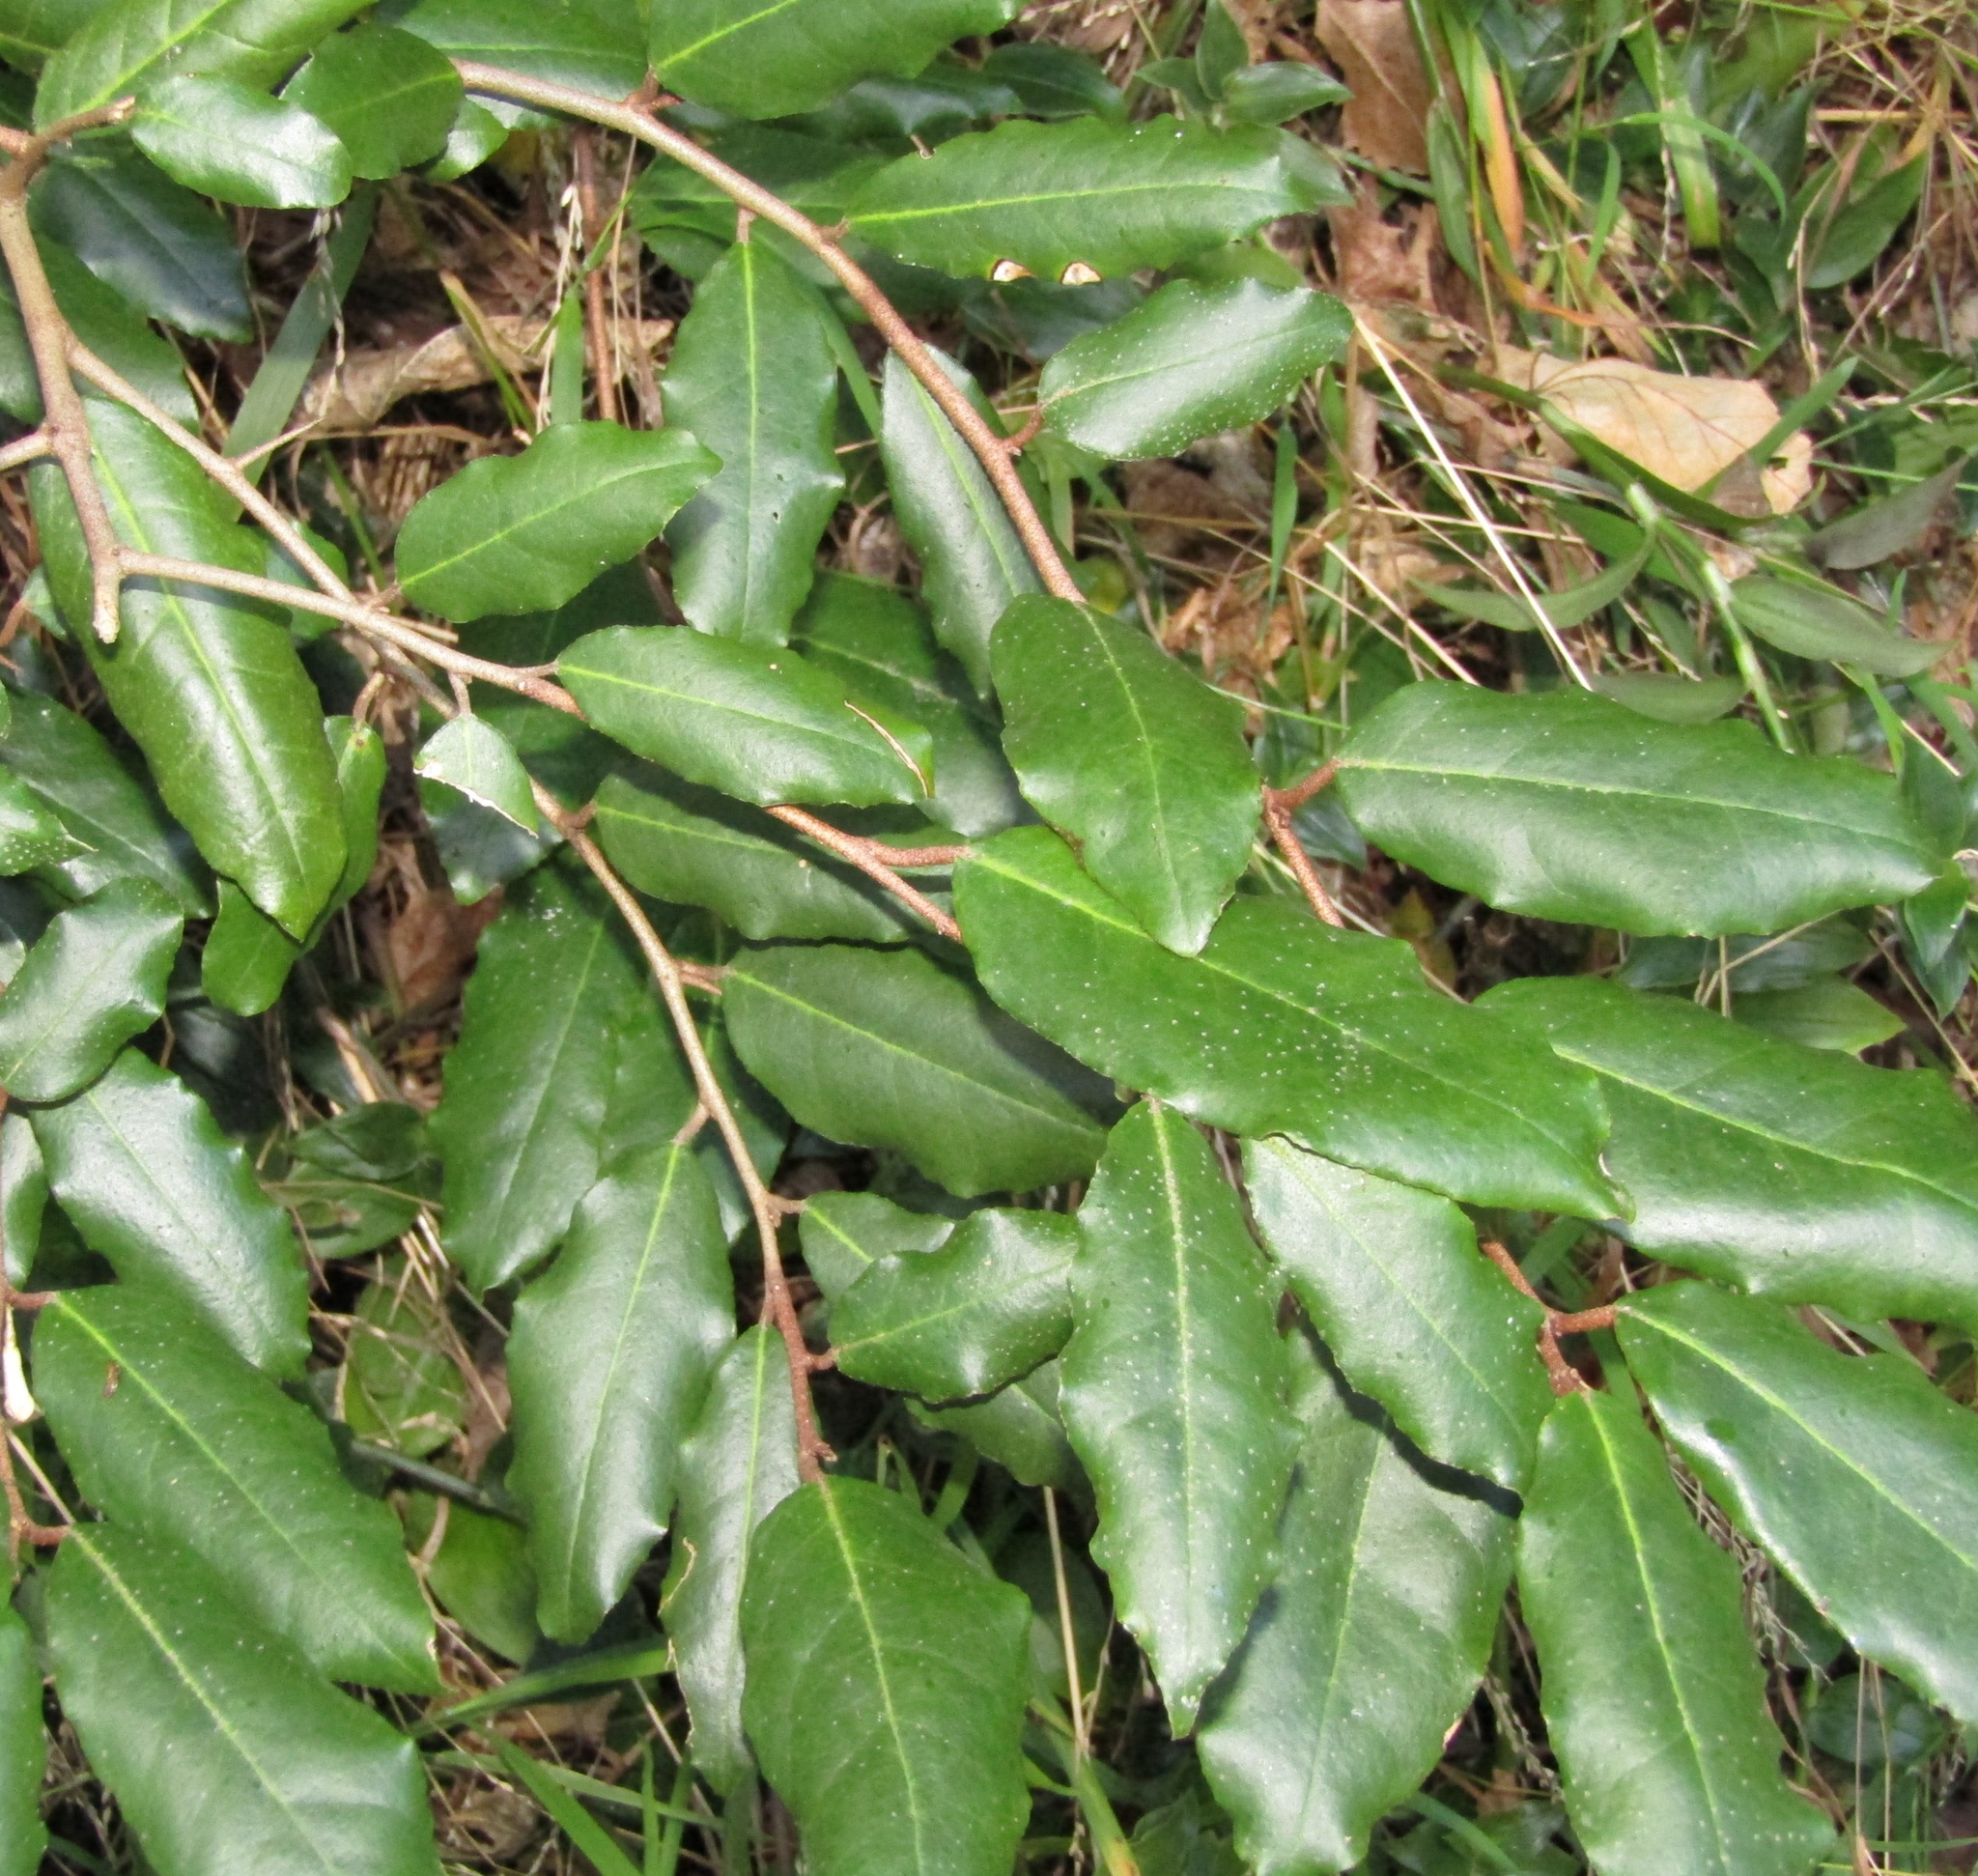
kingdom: Plantae
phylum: Tracheophyta
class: Magnoliopsida
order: Rosales
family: Elaeagnaceae
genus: Elaeagnus
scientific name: Elaeagnus pungens
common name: Spiny oleaster
